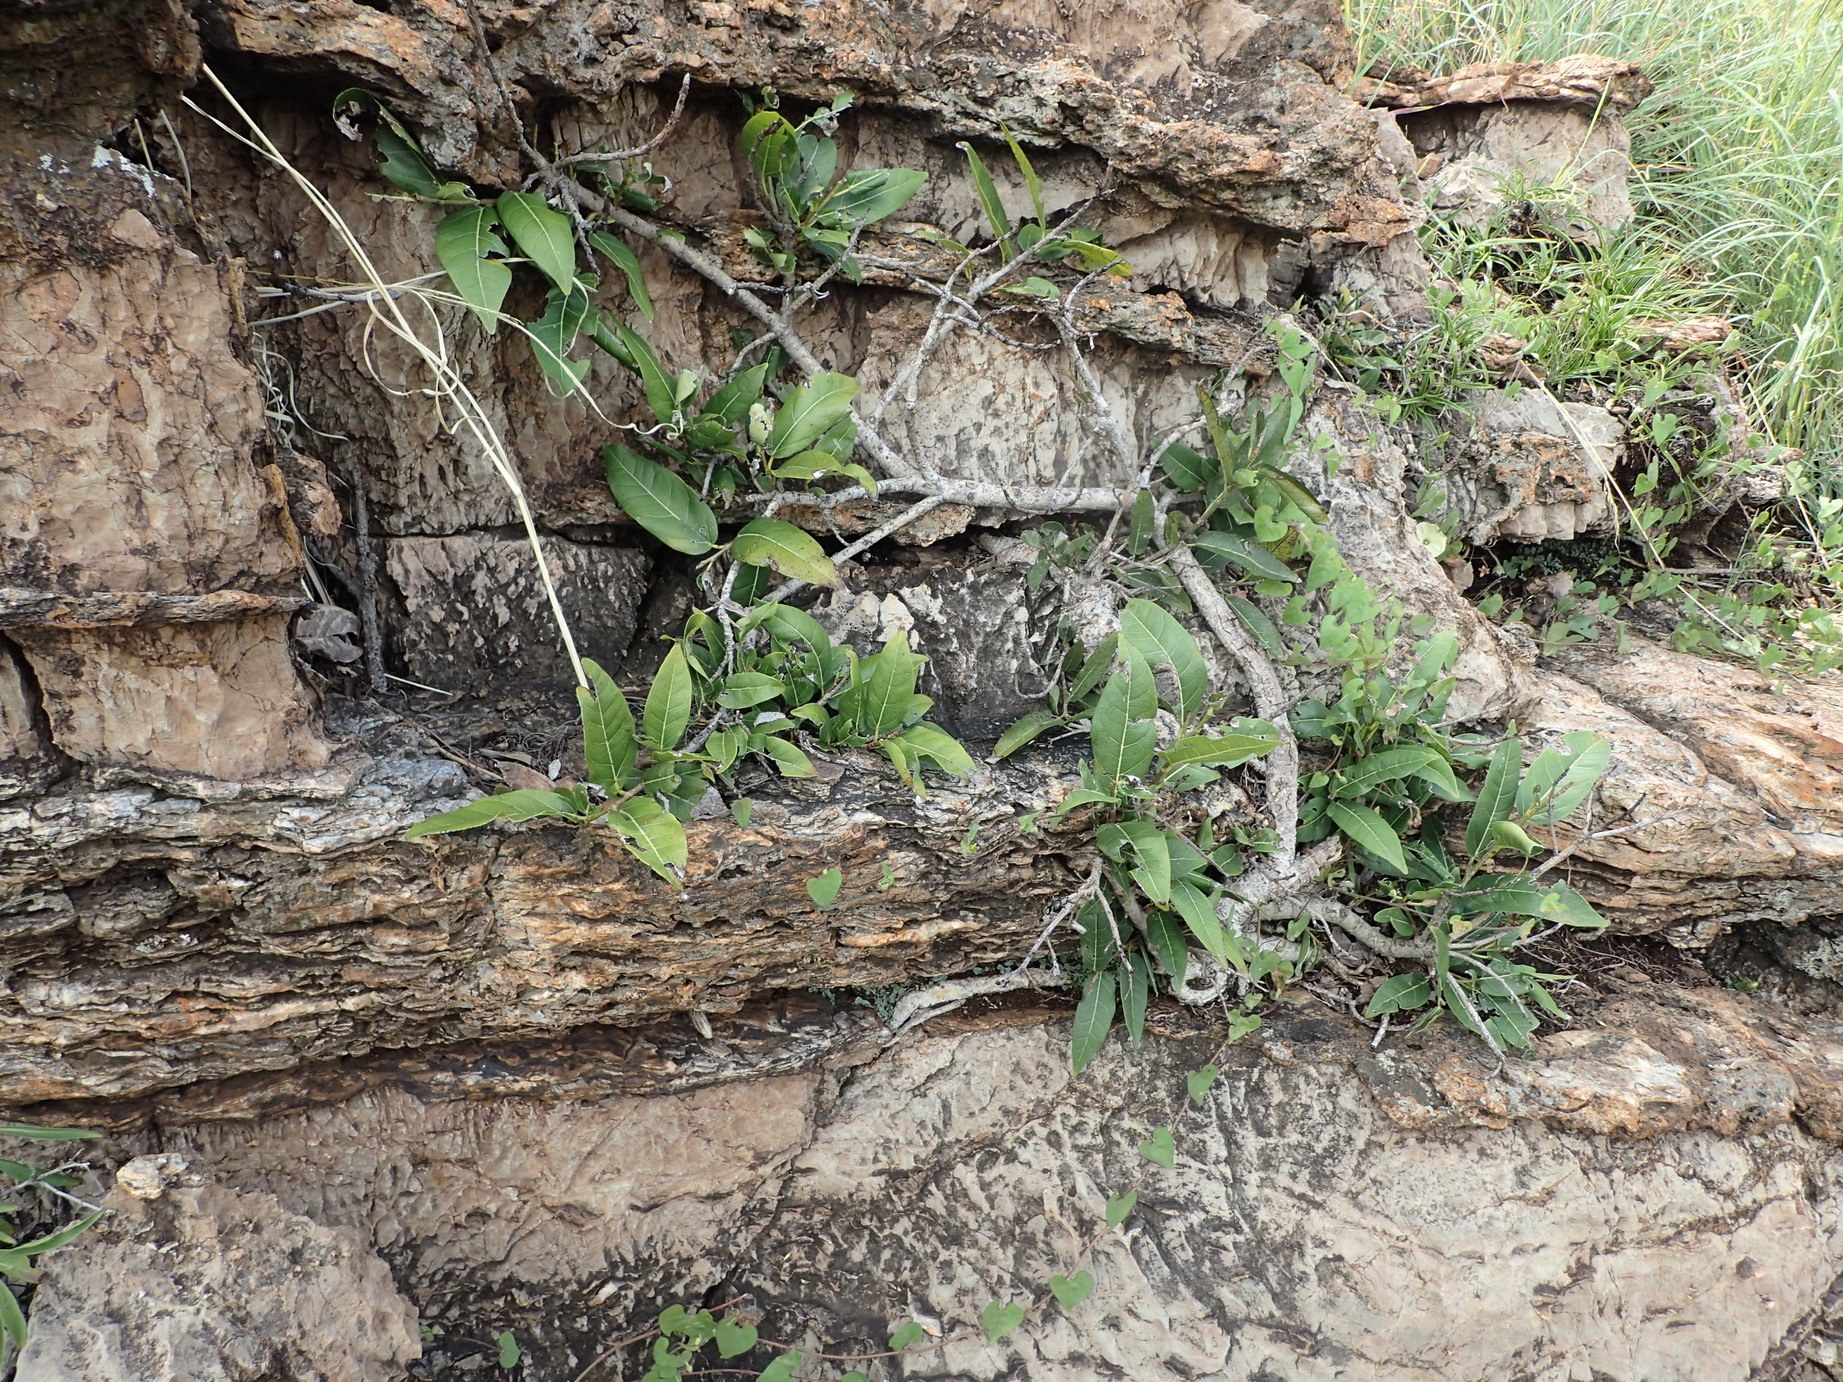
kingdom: Plantae
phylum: Tracheophyta
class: Magnoliopsida
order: Rosales
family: Moraceae
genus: Ficus
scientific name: Ficus ingens
